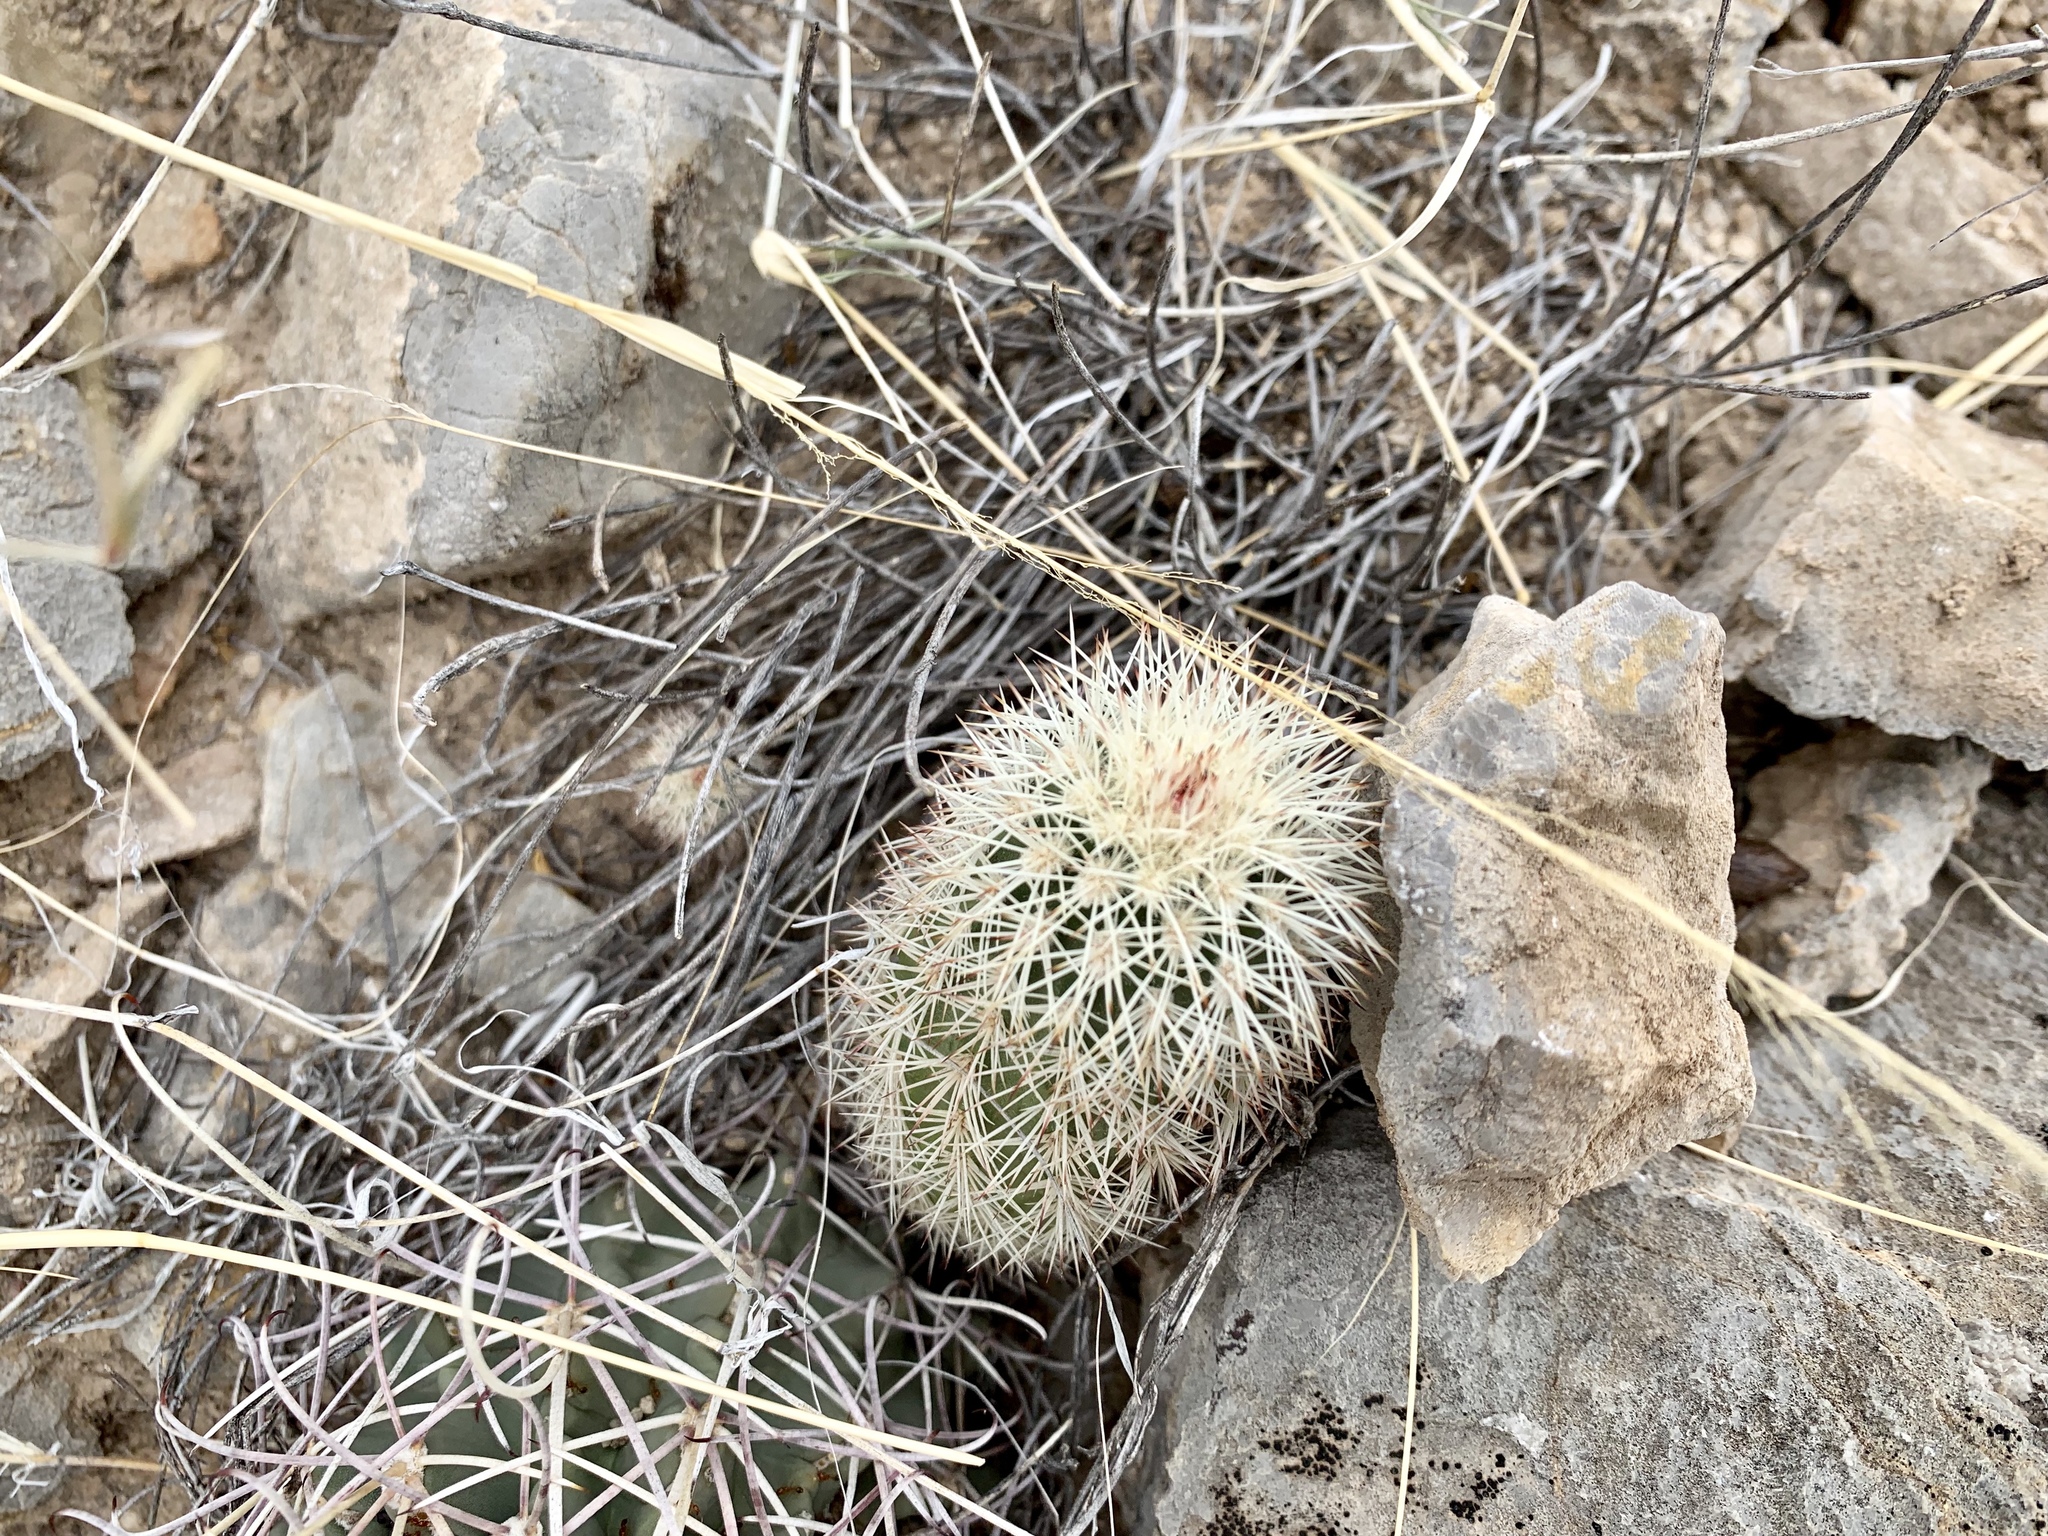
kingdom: Plantae
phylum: Tracheophyta
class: Magnoliopsida
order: Caryophyllales
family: Cactaceae
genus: Echinocereus
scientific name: Echinocereus dasyacanthus
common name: Spiny hedgehog cactus
